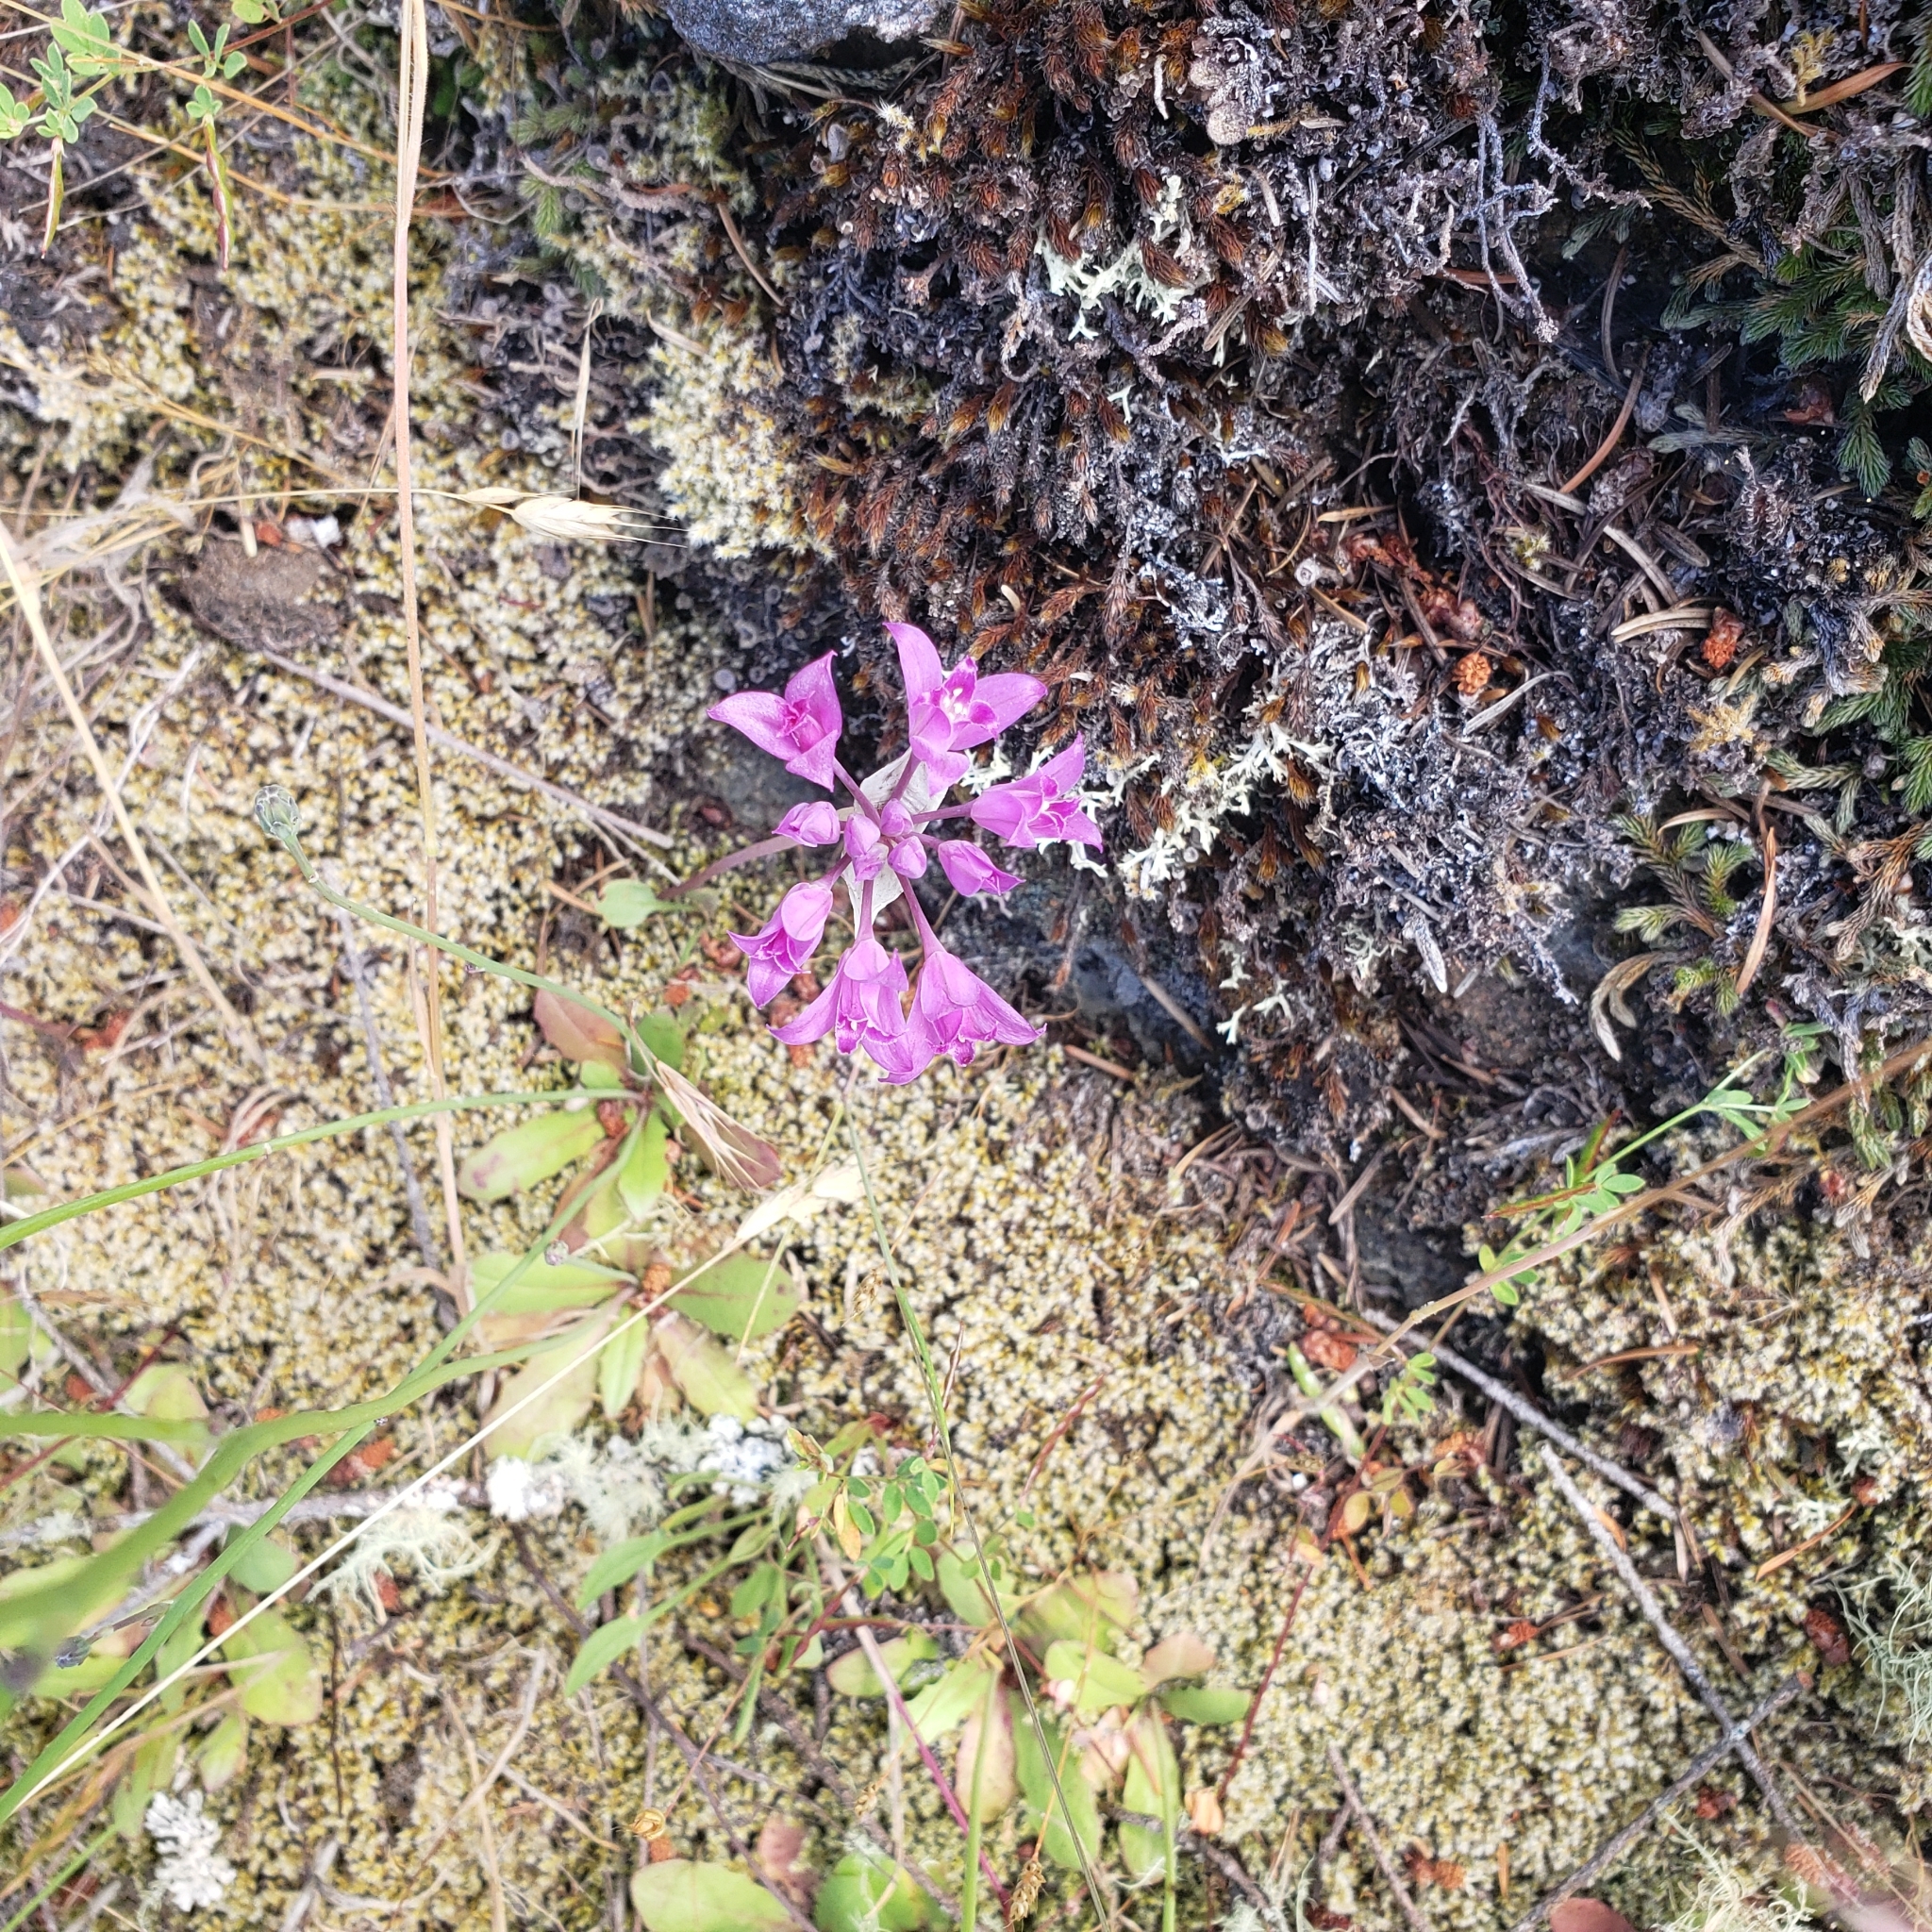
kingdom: Plantae
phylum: Tracheophyta
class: Liliopsida
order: Asparagales
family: Amaryllidaceae
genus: Allium
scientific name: Allium acuminatum
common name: Hooker's onion
